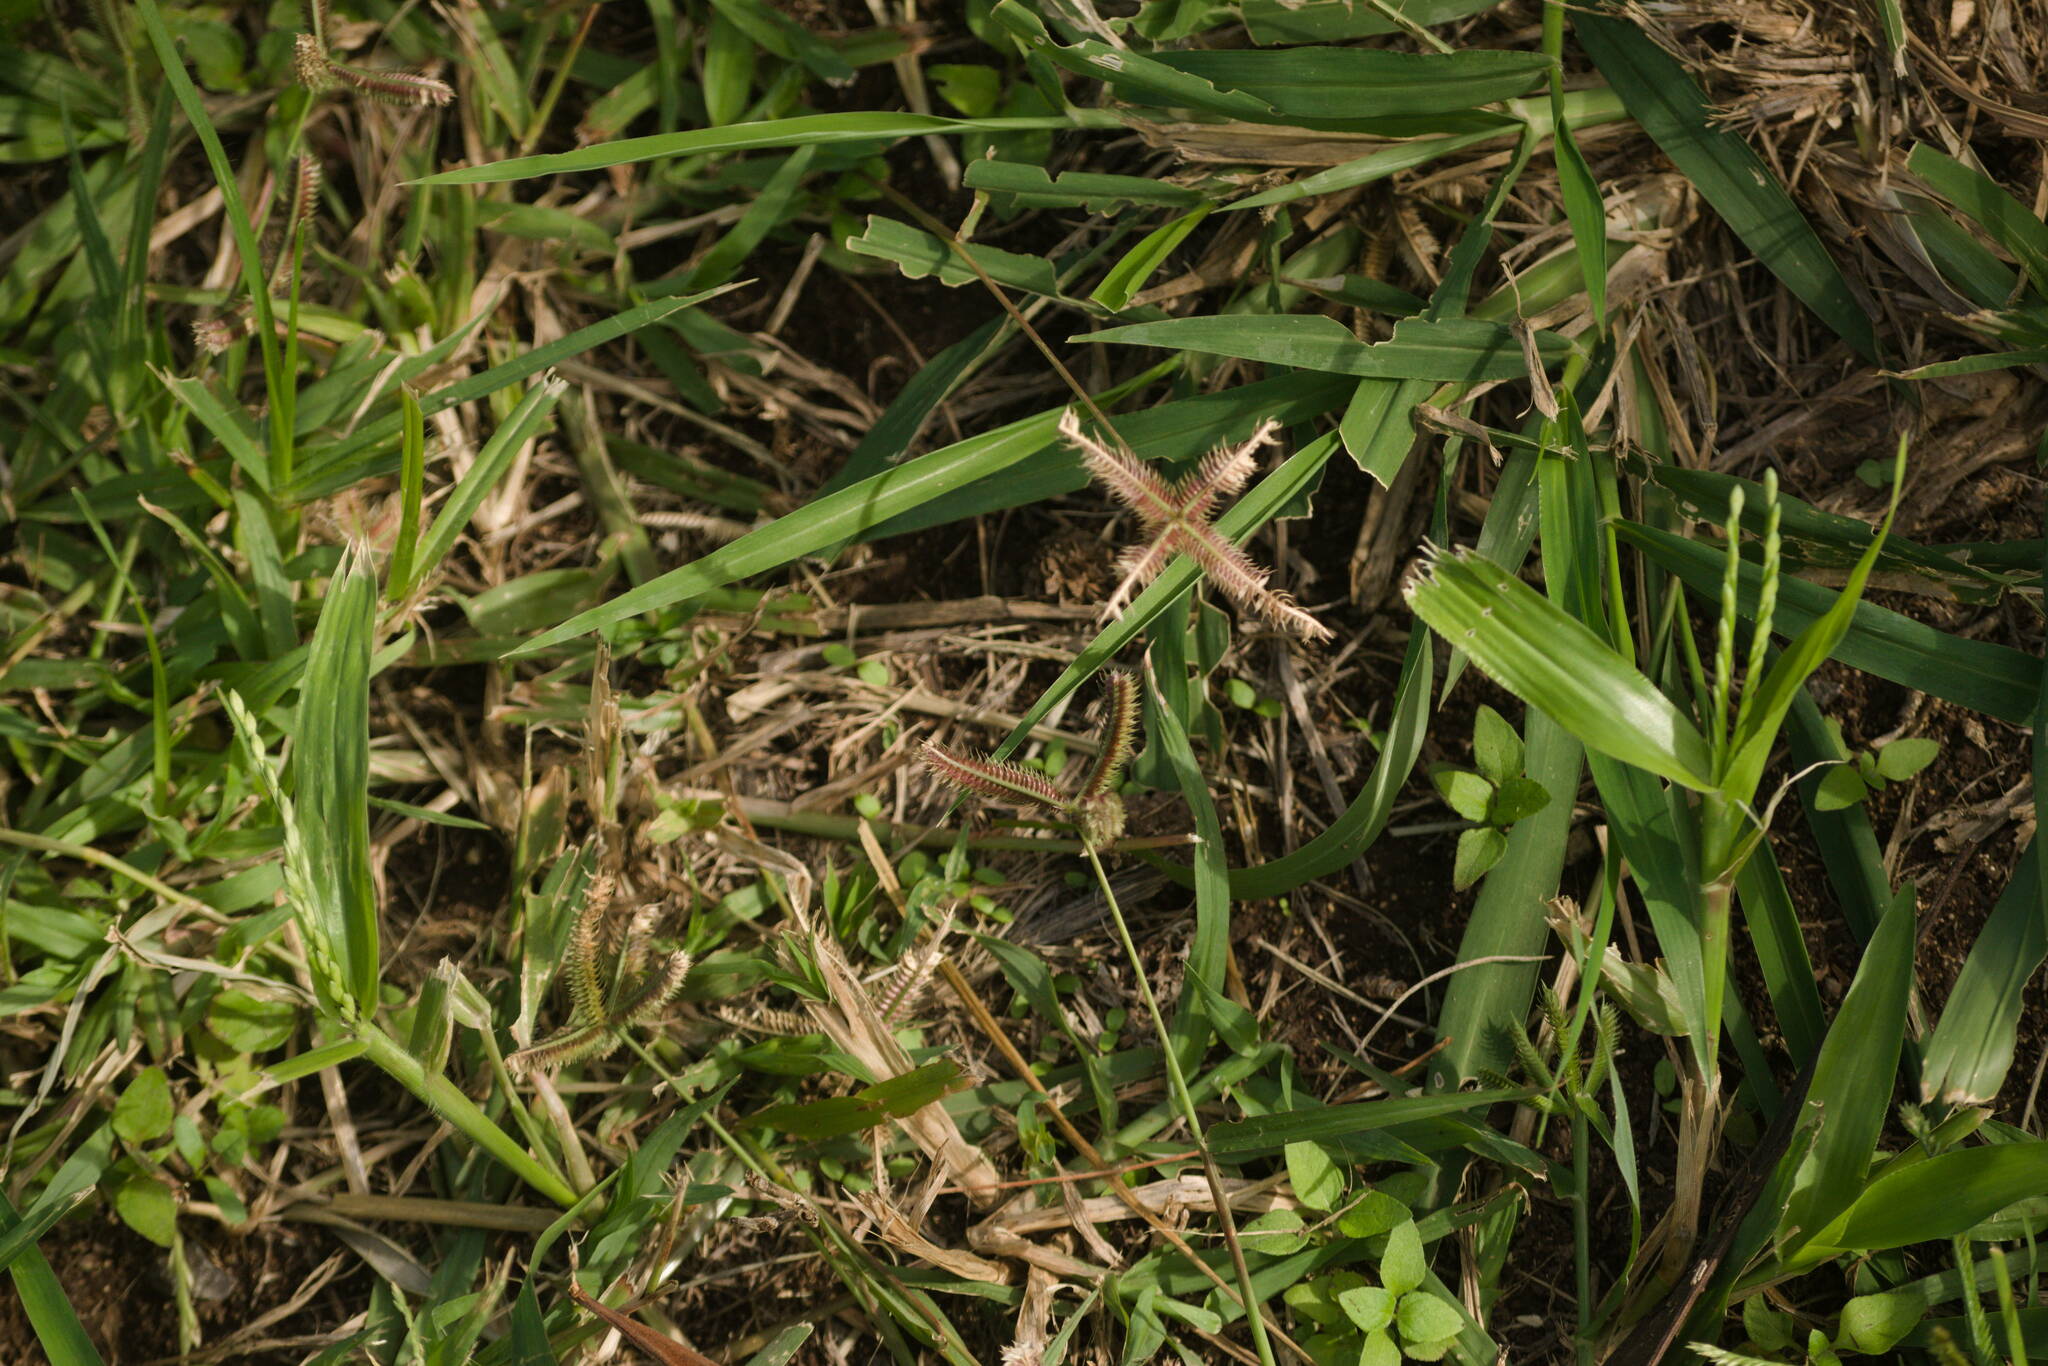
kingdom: Plantae
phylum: Tracheophyta
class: Liliopsida
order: Poales
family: Poaceae
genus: Dactyloctenium
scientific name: Dactyloctenium aegyptium
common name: Egyptian grass
